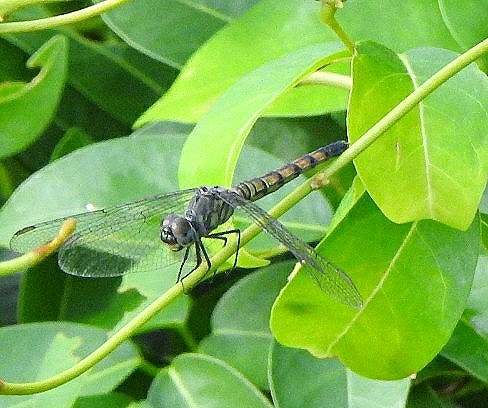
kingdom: Animalia
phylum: Arthropoda
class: Insecta
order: Odonata
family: Libellulidae
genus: Brachydiplax
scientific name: Brachydiplax chalybea
